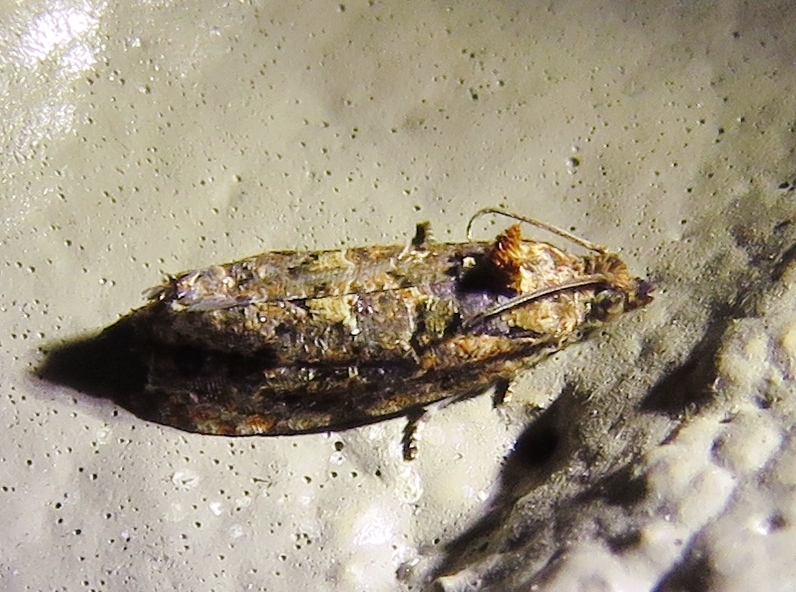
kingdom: Animalia
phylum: Arthropoda
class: Insecta
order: Lepidoptera
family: Tortricidae
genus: Endothenia
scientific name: Endothenia hebesana
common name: Verbena bud moth
